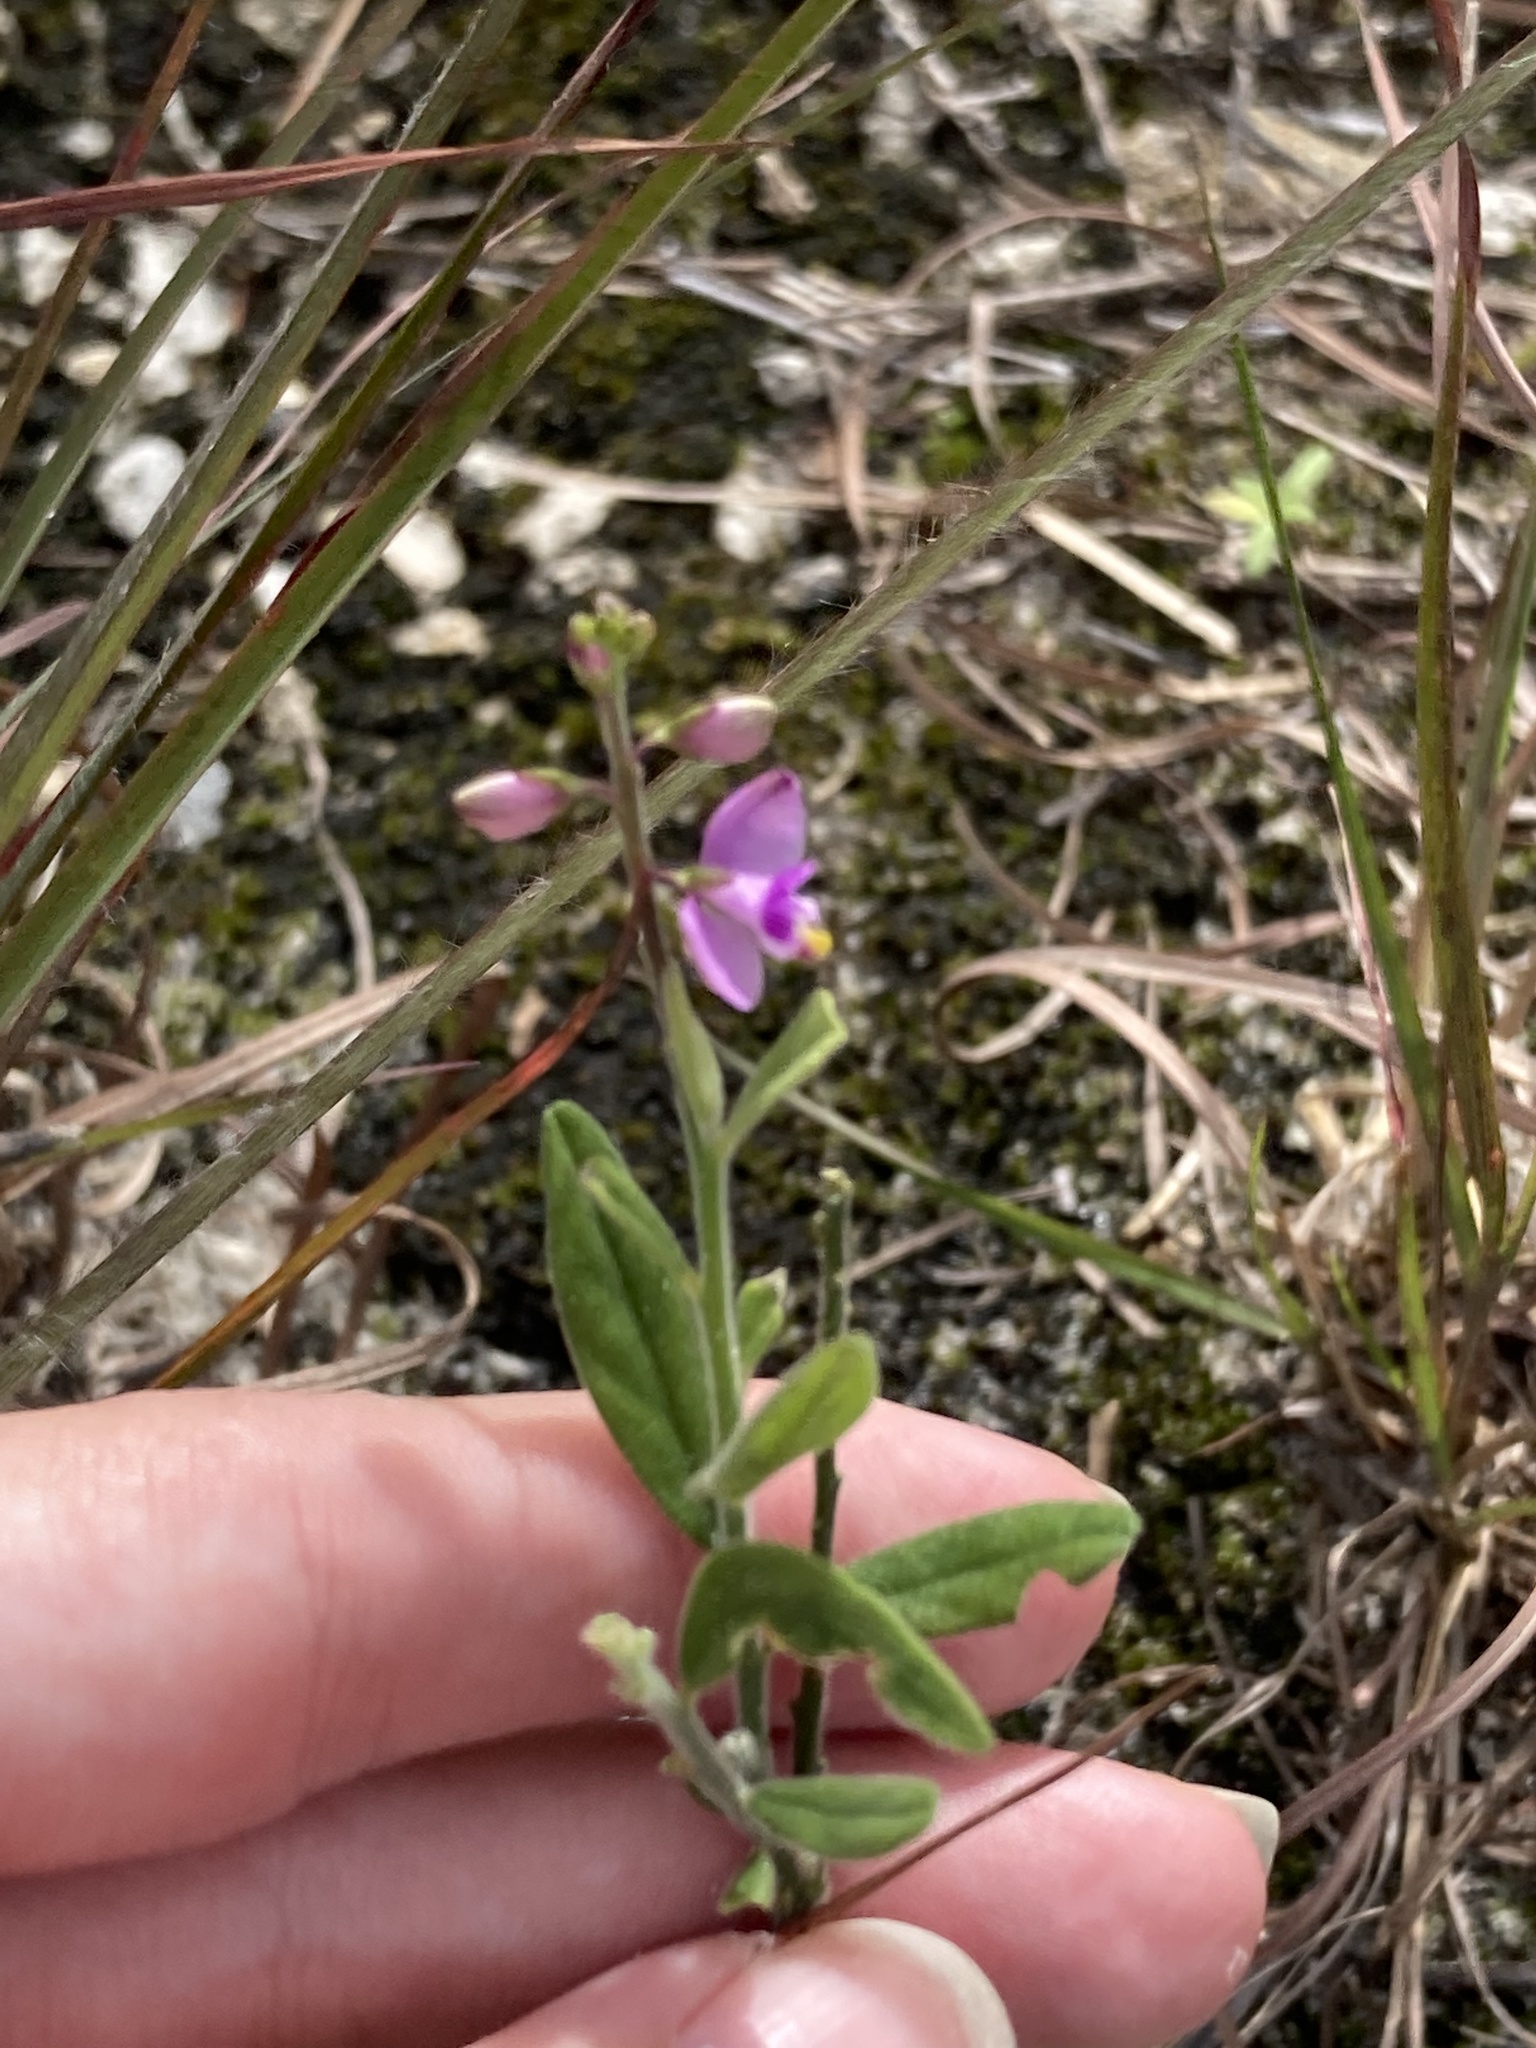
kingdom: Plantae
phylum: Tracheophyta
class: Magnoliopsida
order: Fabales
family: Polygalaceae
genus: Asemeia
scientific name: Asemeia grandiflora
